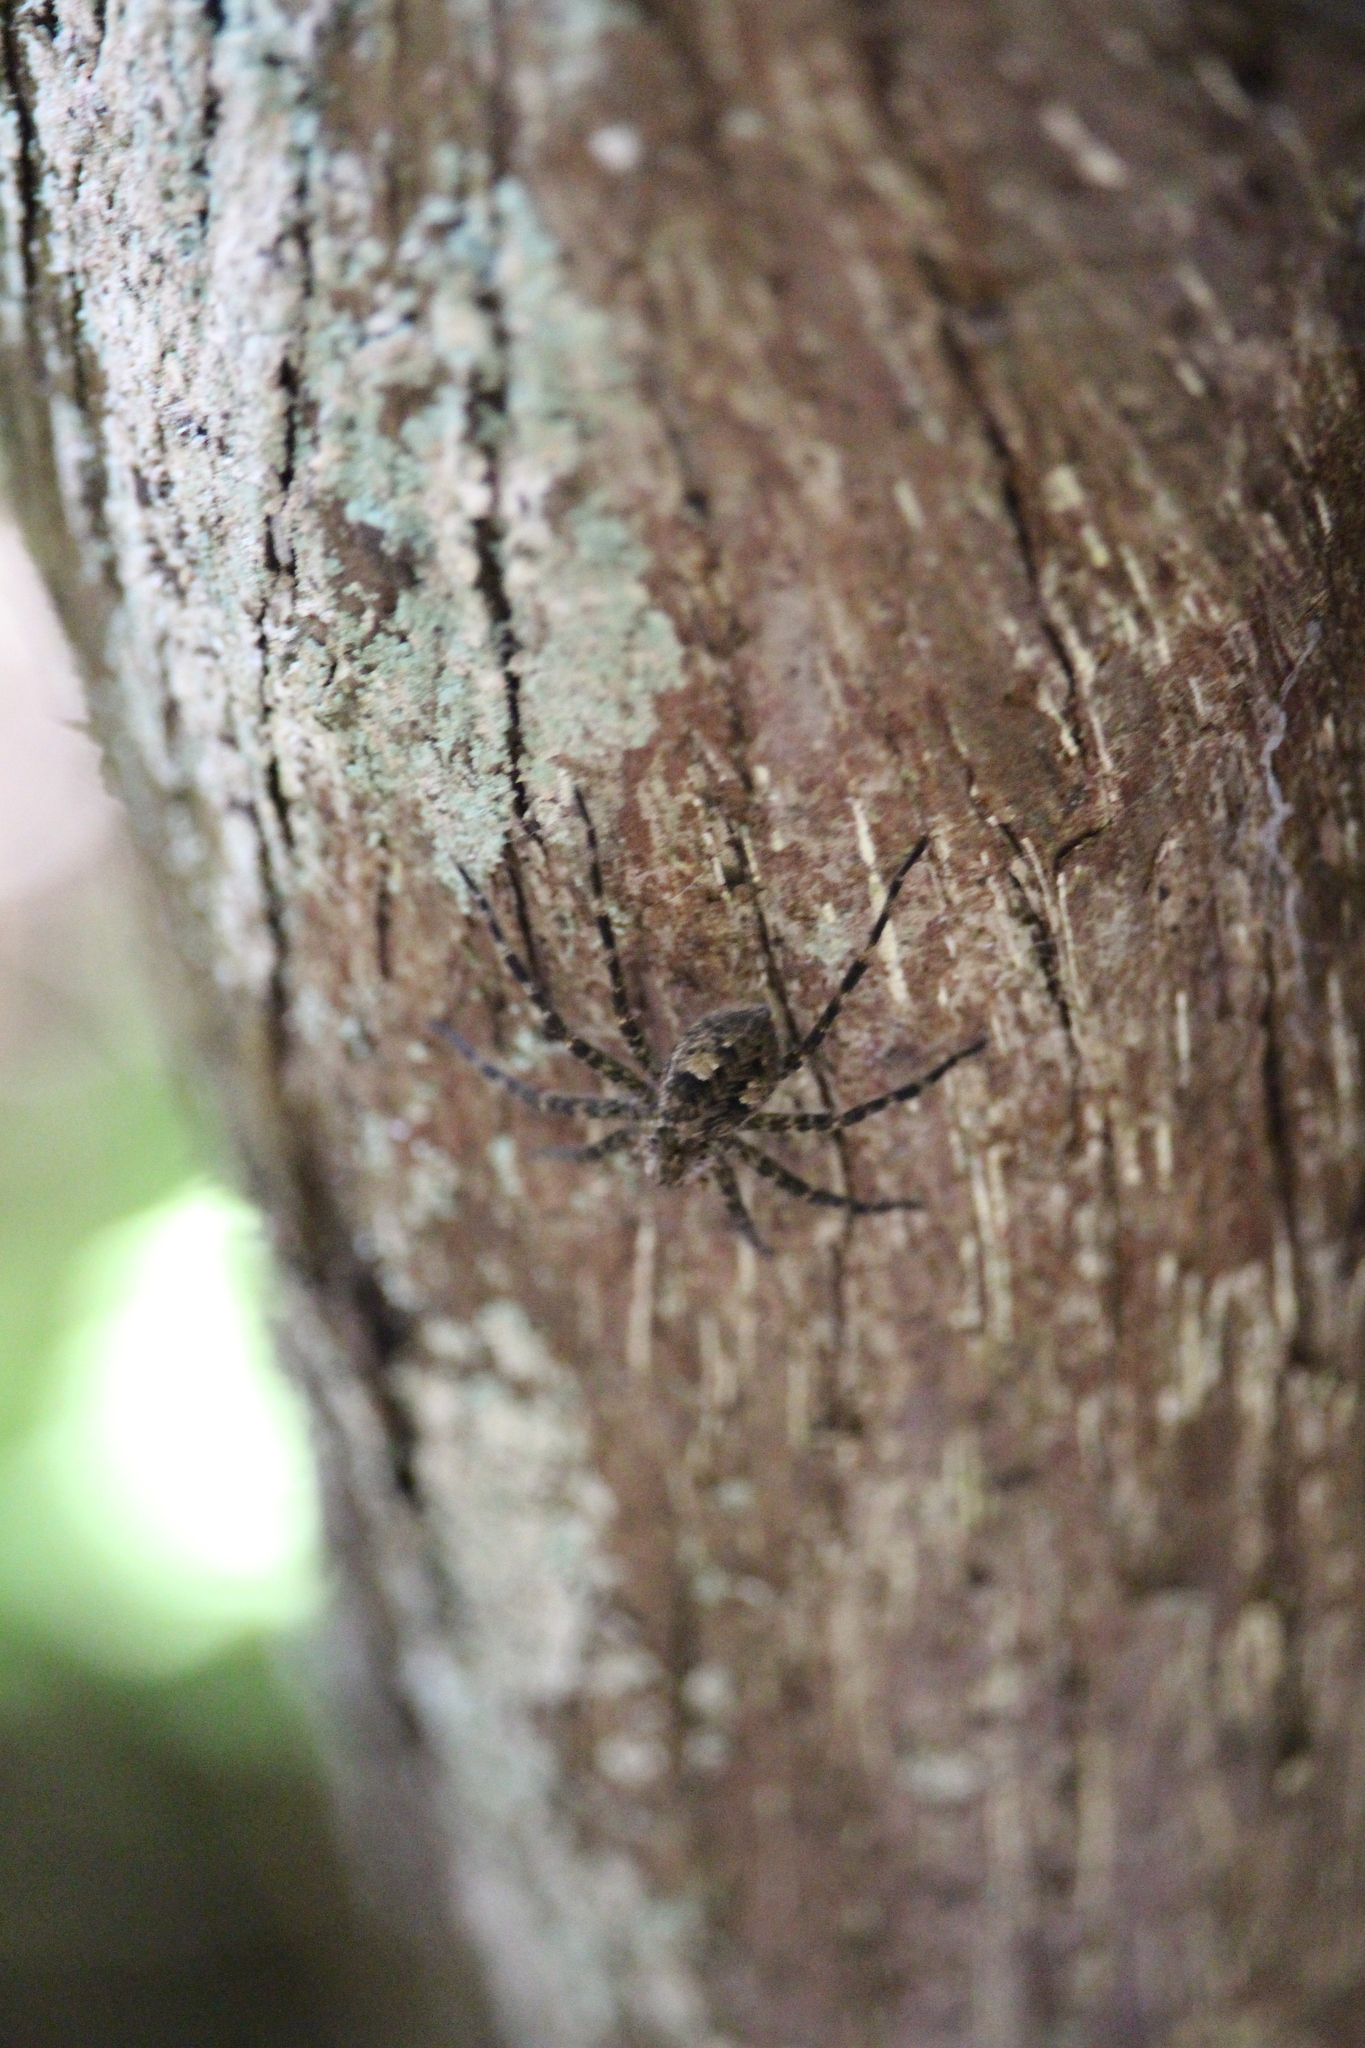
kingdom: Animalia
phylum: Arthropoda
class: Arachnida
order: Araneae
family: Pisauridae
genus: Dolomedes
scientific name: Dolomedes tenebrosus
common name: Dark fishing spider
